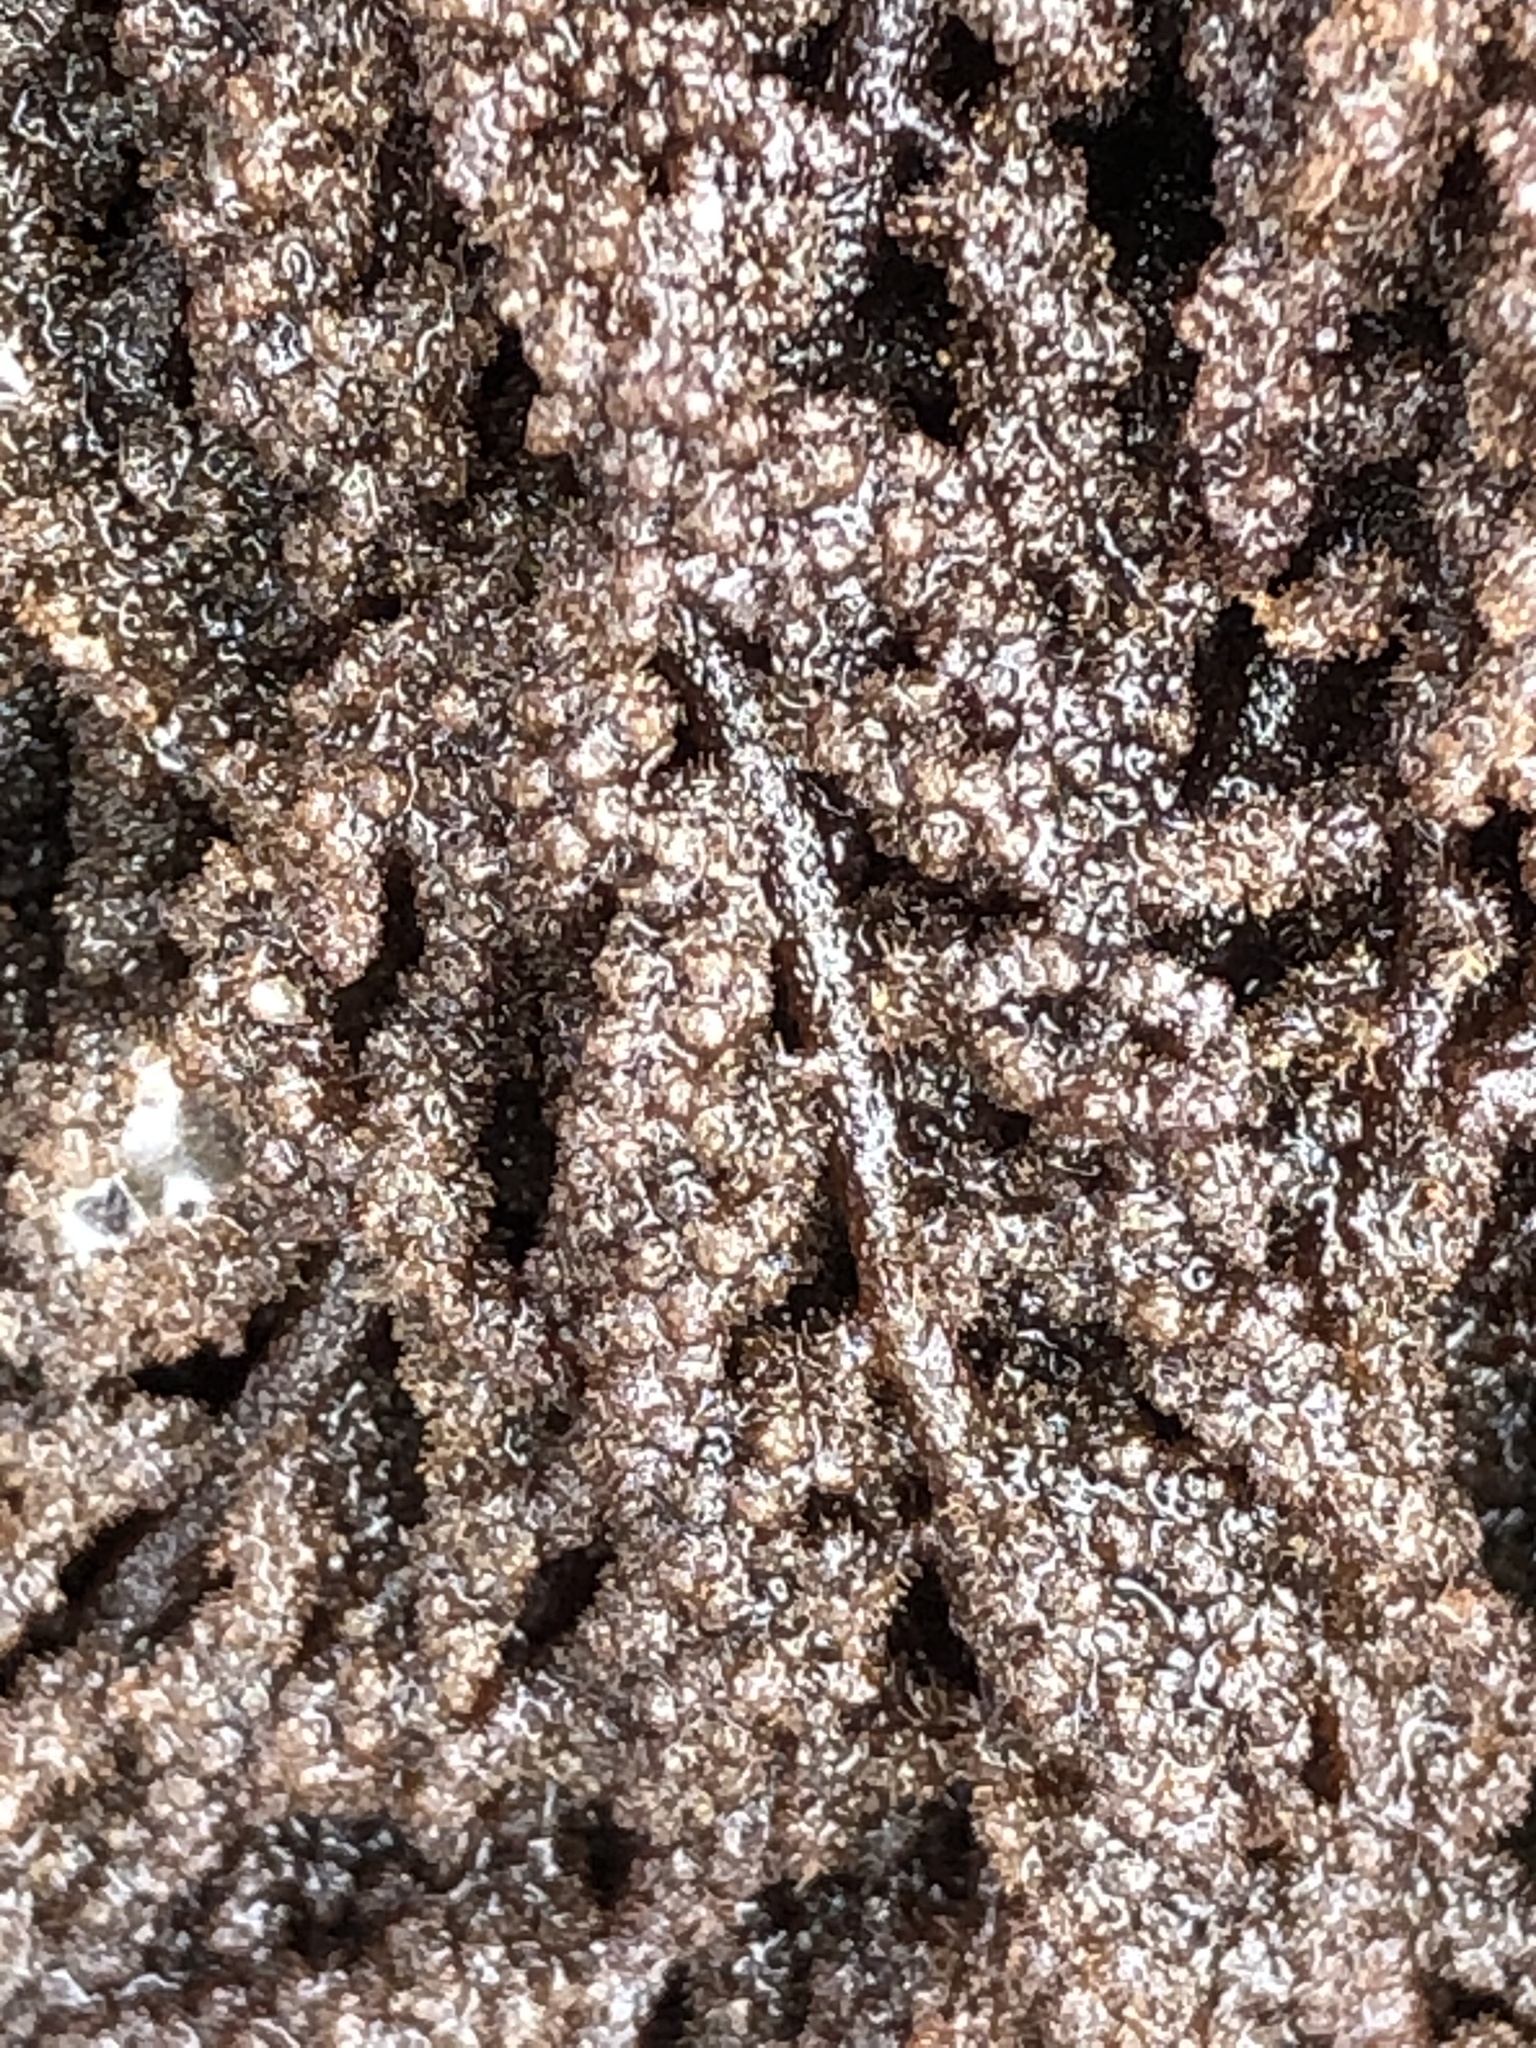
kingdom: Plantae
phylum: Rhodophyta
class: Florideophyceae
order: Ceramiales
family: Callithamniaceae
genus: Callithamnion
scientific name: Callithamnion pikeanum
